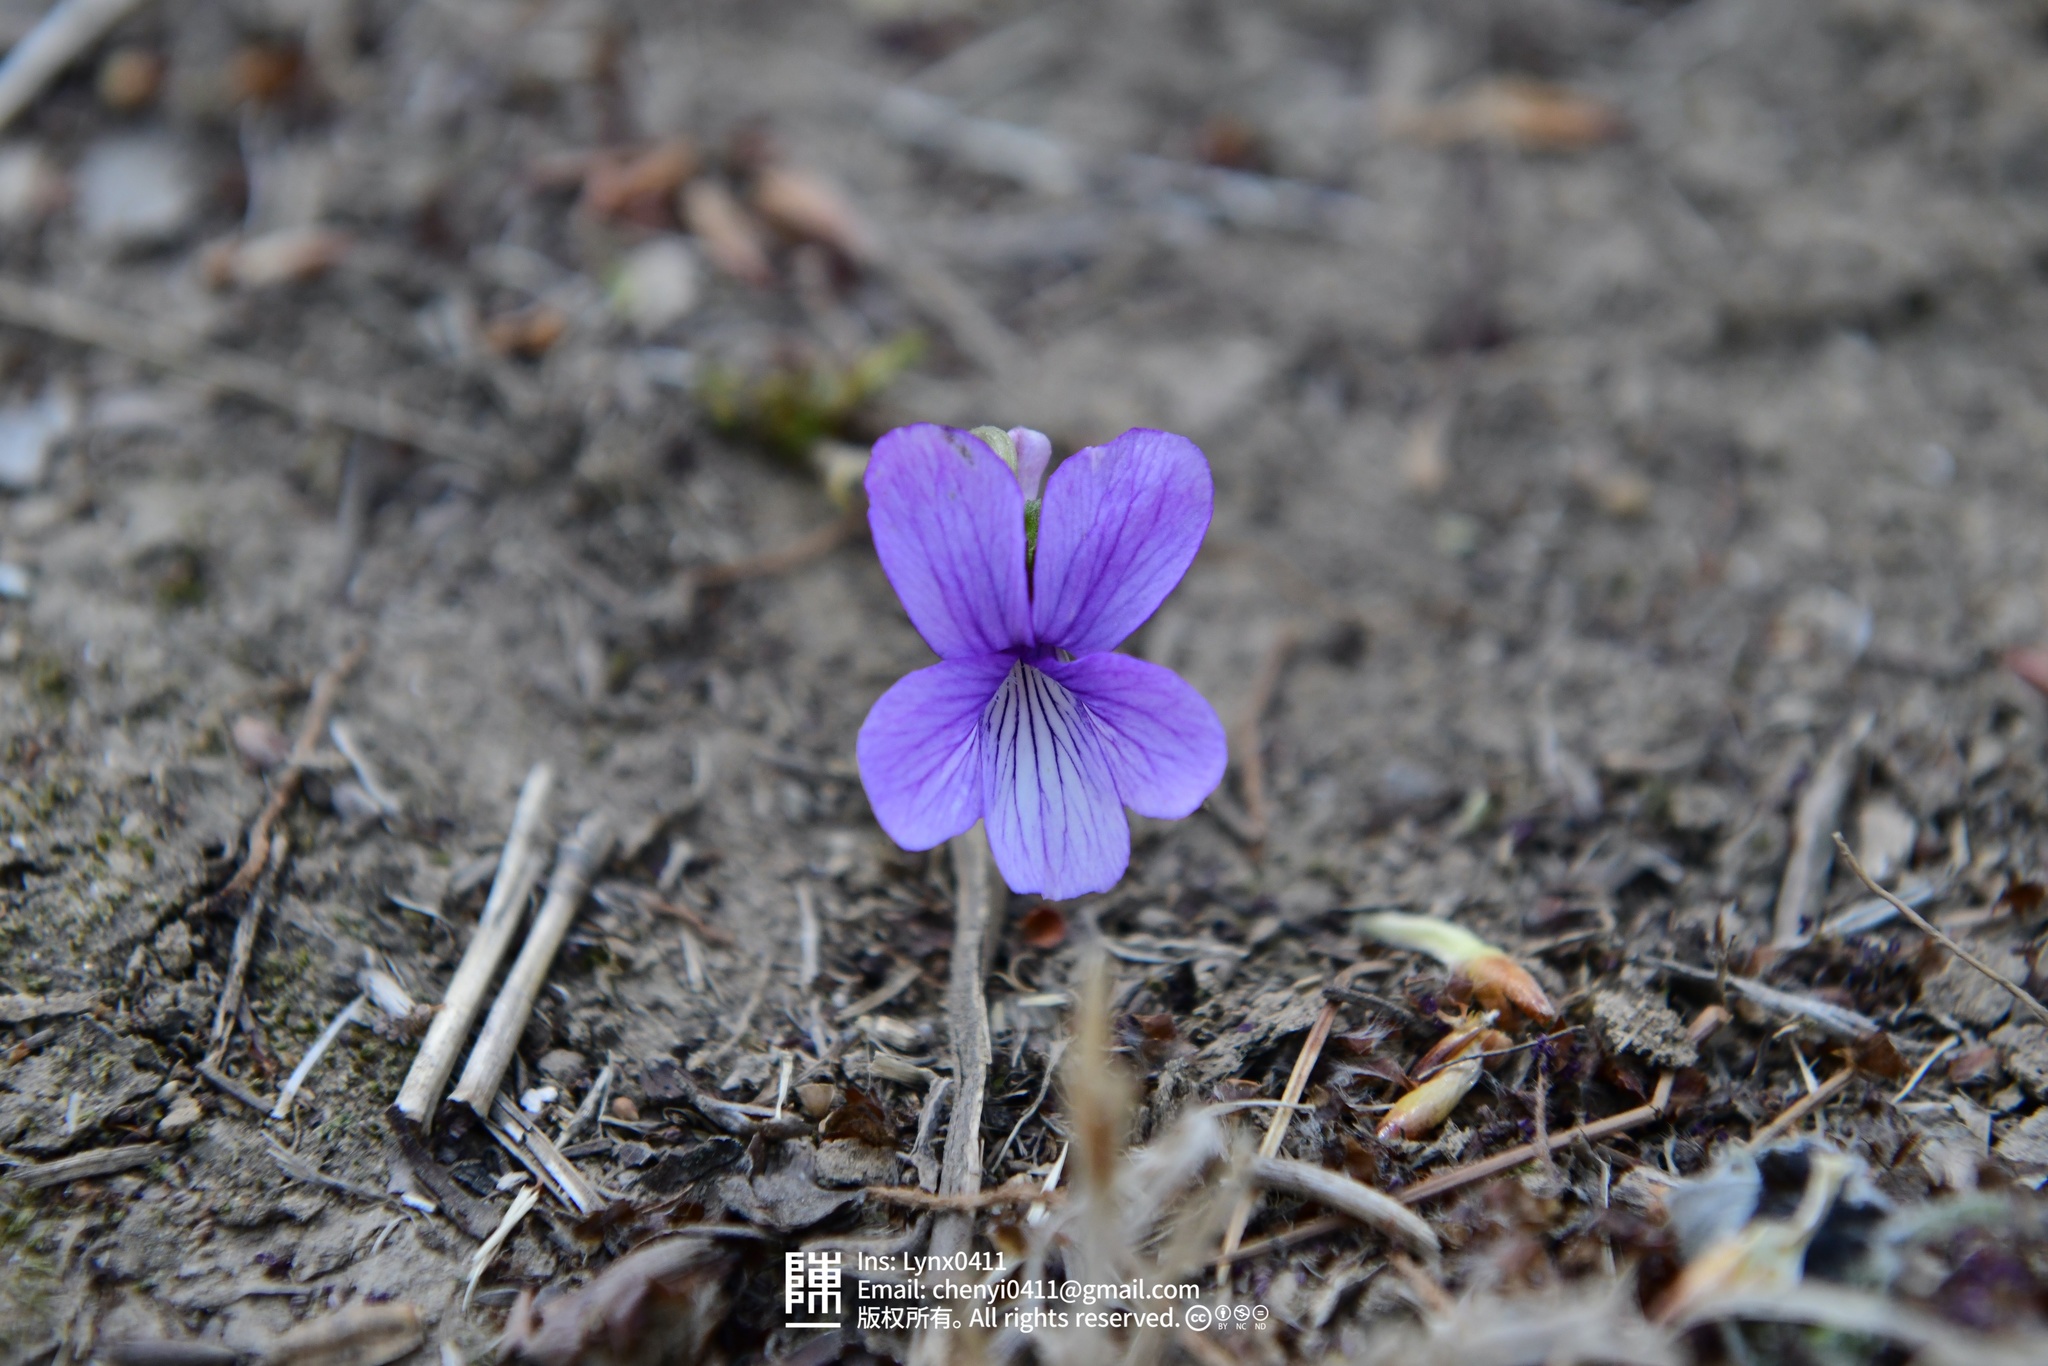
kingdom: Plantae
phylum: Tracheophyta
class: Magnoliopsida
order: Malpighiales
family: Violaceae
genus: Viola
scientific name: Viola prionantha
